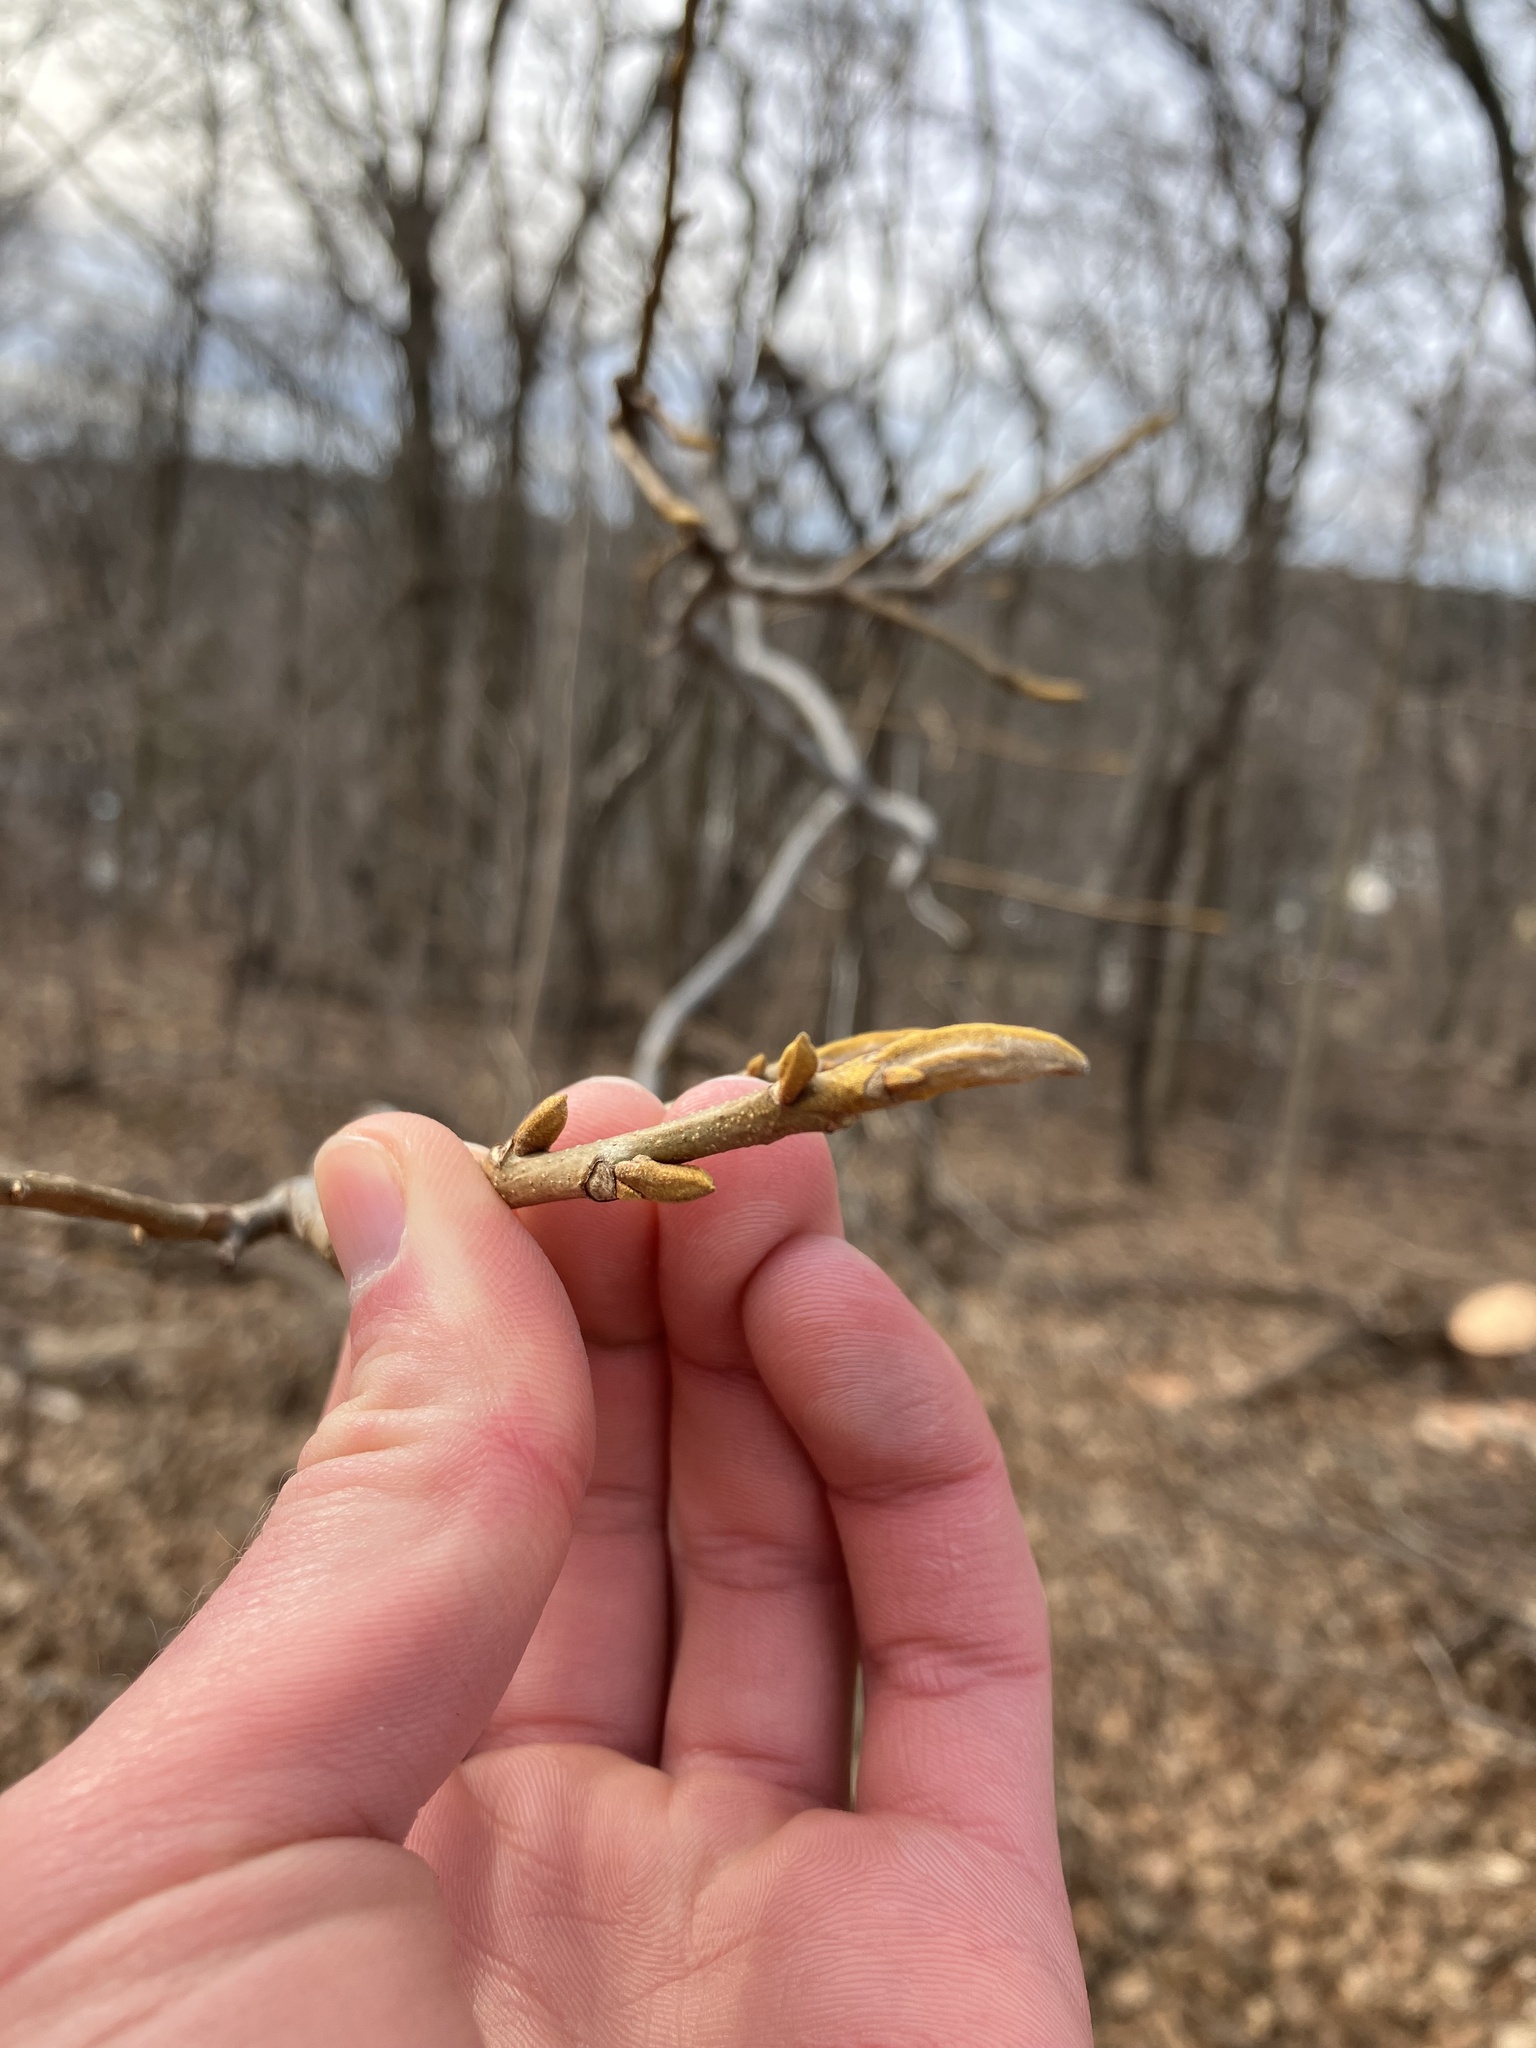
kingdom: Plantae
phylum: Tracheophyta
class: Magnoliopsida
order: Fagales
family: Juglandaceae
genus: Carya
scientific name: Carya cordiformis
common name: Bitternut hickory
